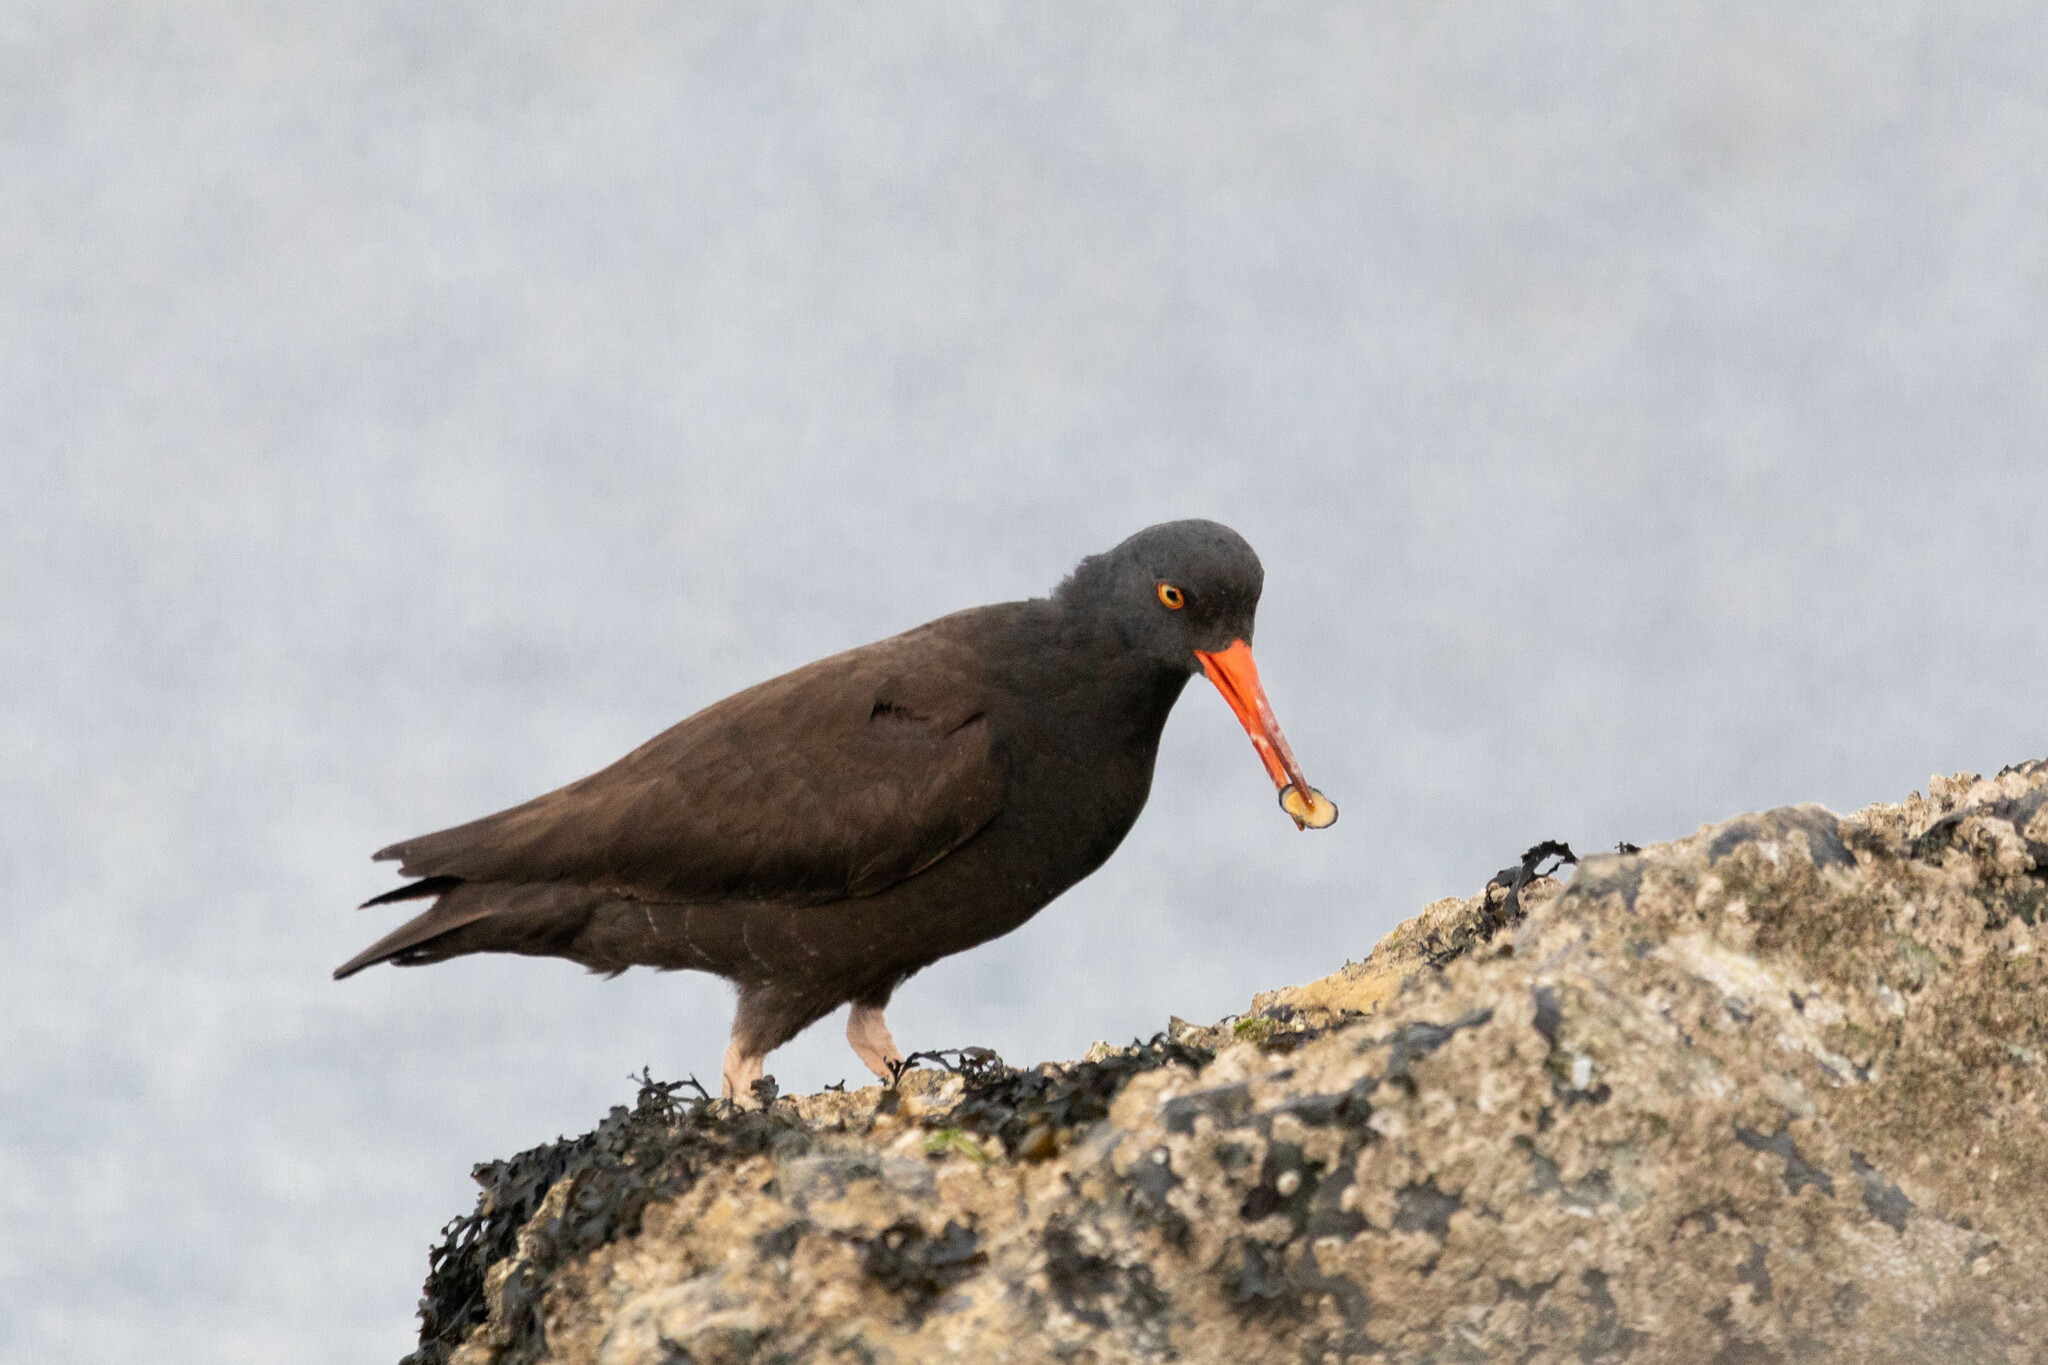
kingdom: Animalia
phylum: Chordata
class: Aves
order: Charadriiformes
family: Haematopodidae
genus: Haematopus
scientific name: Haematopus bachmani
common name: Black oystercatcher
